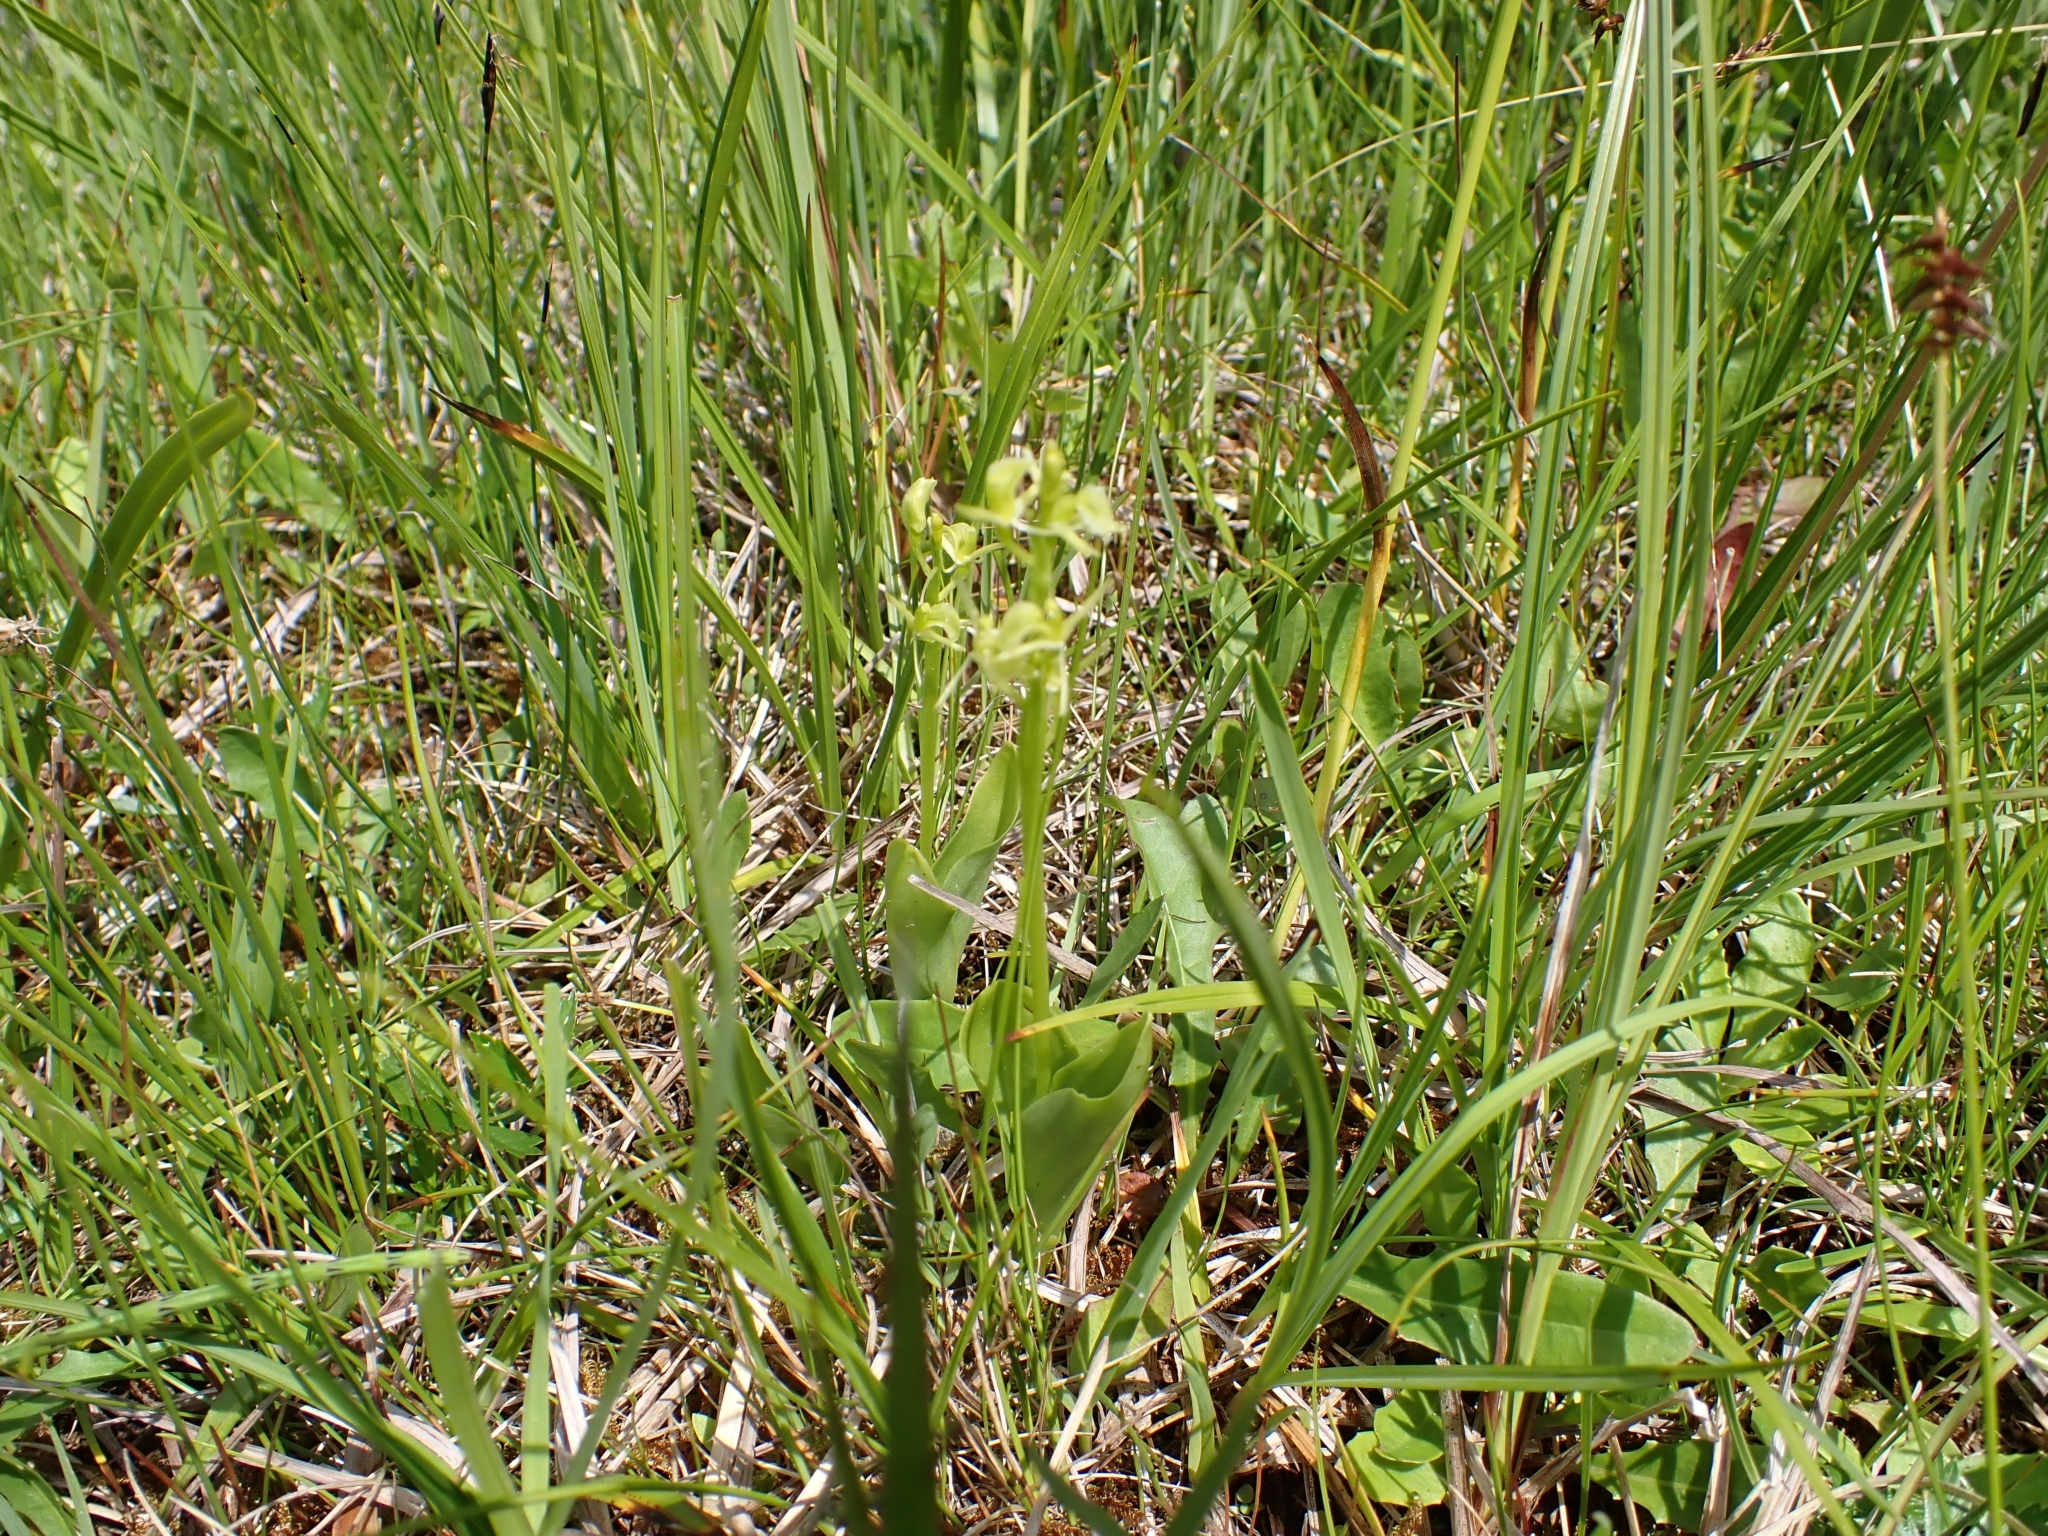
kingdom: Animalia
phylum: Arthropoda
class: Insecta
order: Coleoptera
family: Curculionidae
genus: Liparis
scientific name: Liparis loeselii
